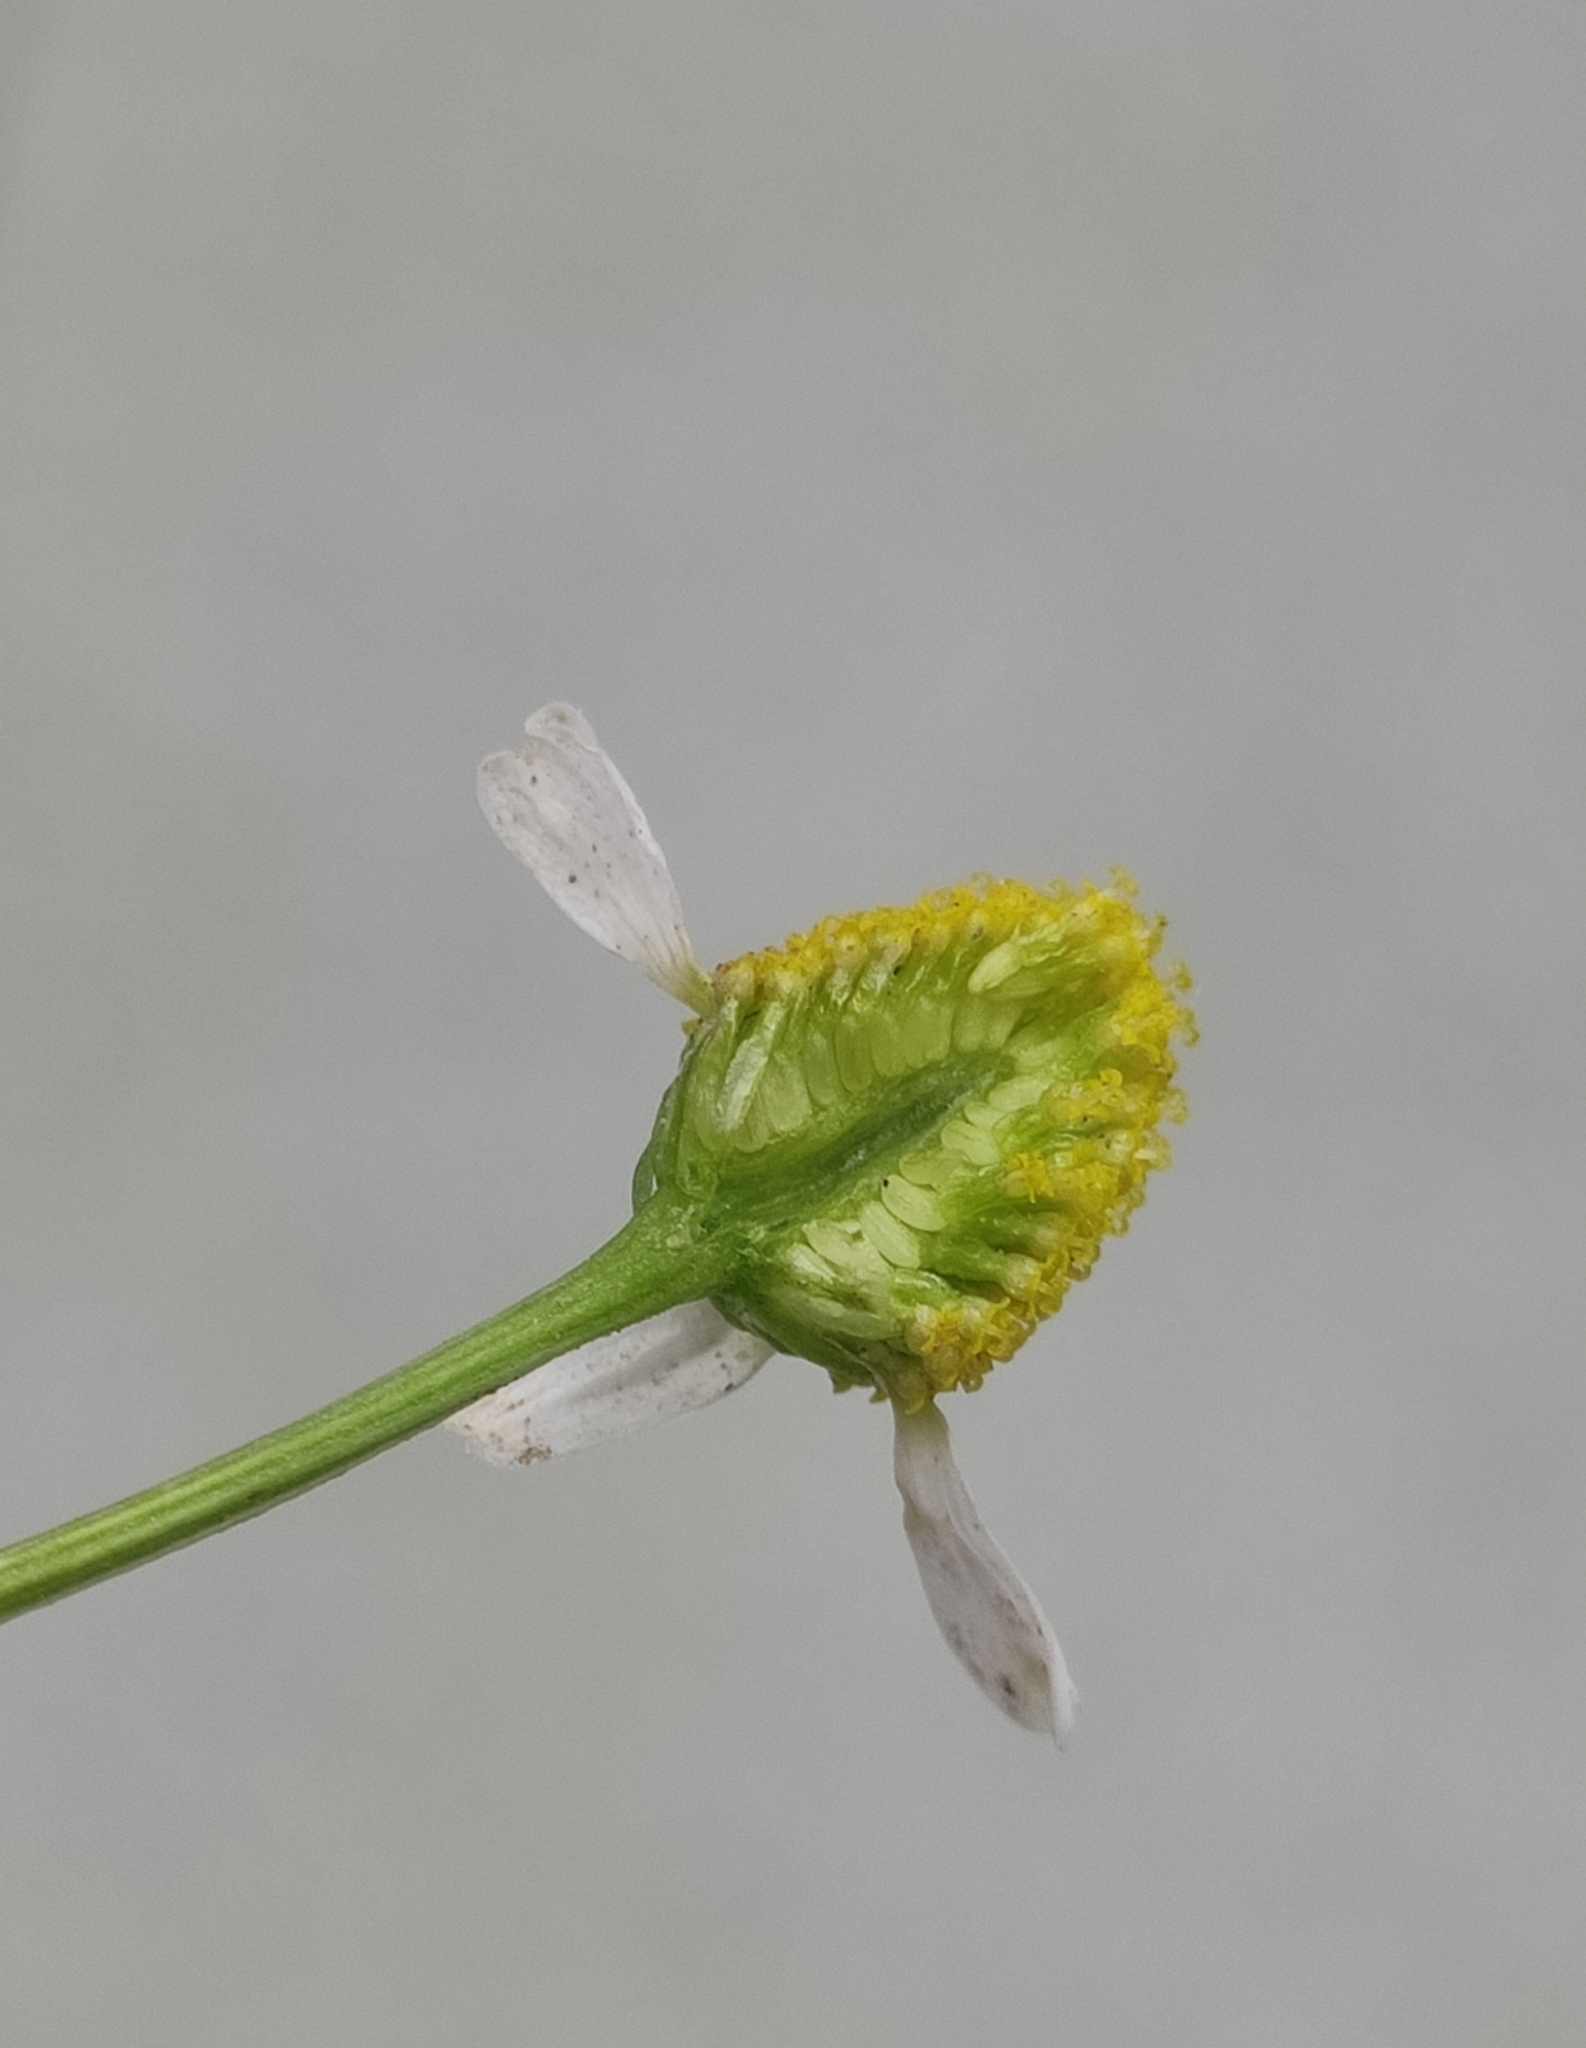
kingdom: Plantae
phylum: Tracheophyta
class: Magnoliopsida
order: Asterales
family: Asteraceae
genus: Matricaria
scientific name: Matricaria chamomilla
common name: Scented mayweed
